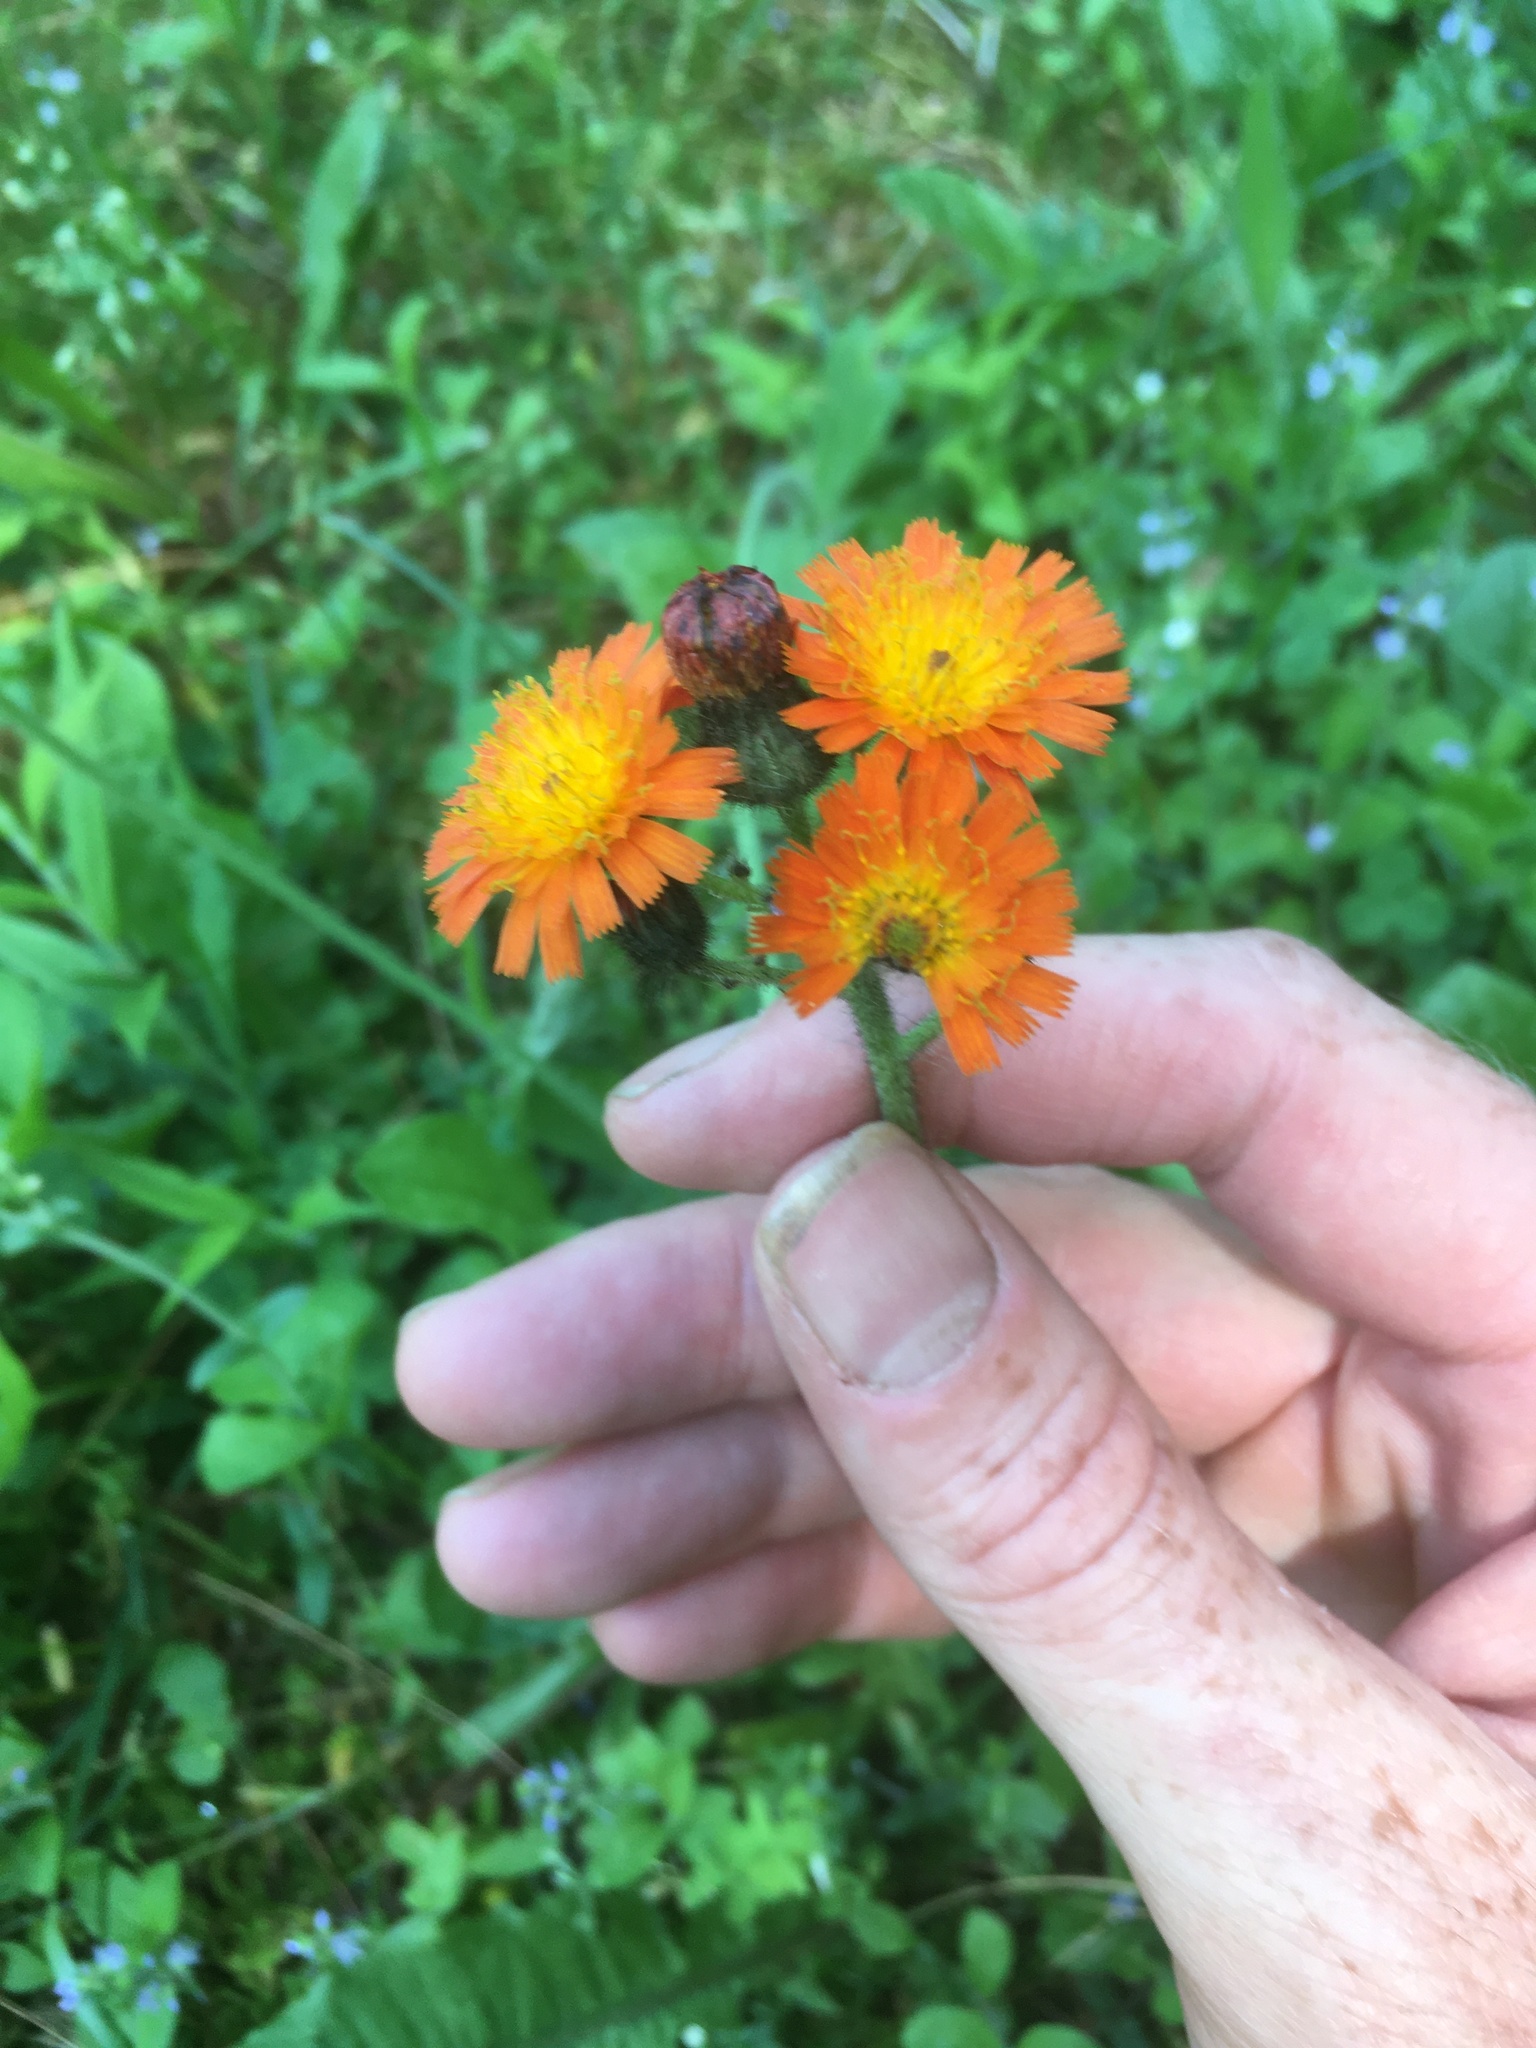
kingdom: Plantae
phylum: Tracheophyta
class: Magnoliopsida
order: Asterales
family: Asteraceae
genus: Pilosella
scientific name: Pilosella aurantiaca
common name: Fox-and-cubs
